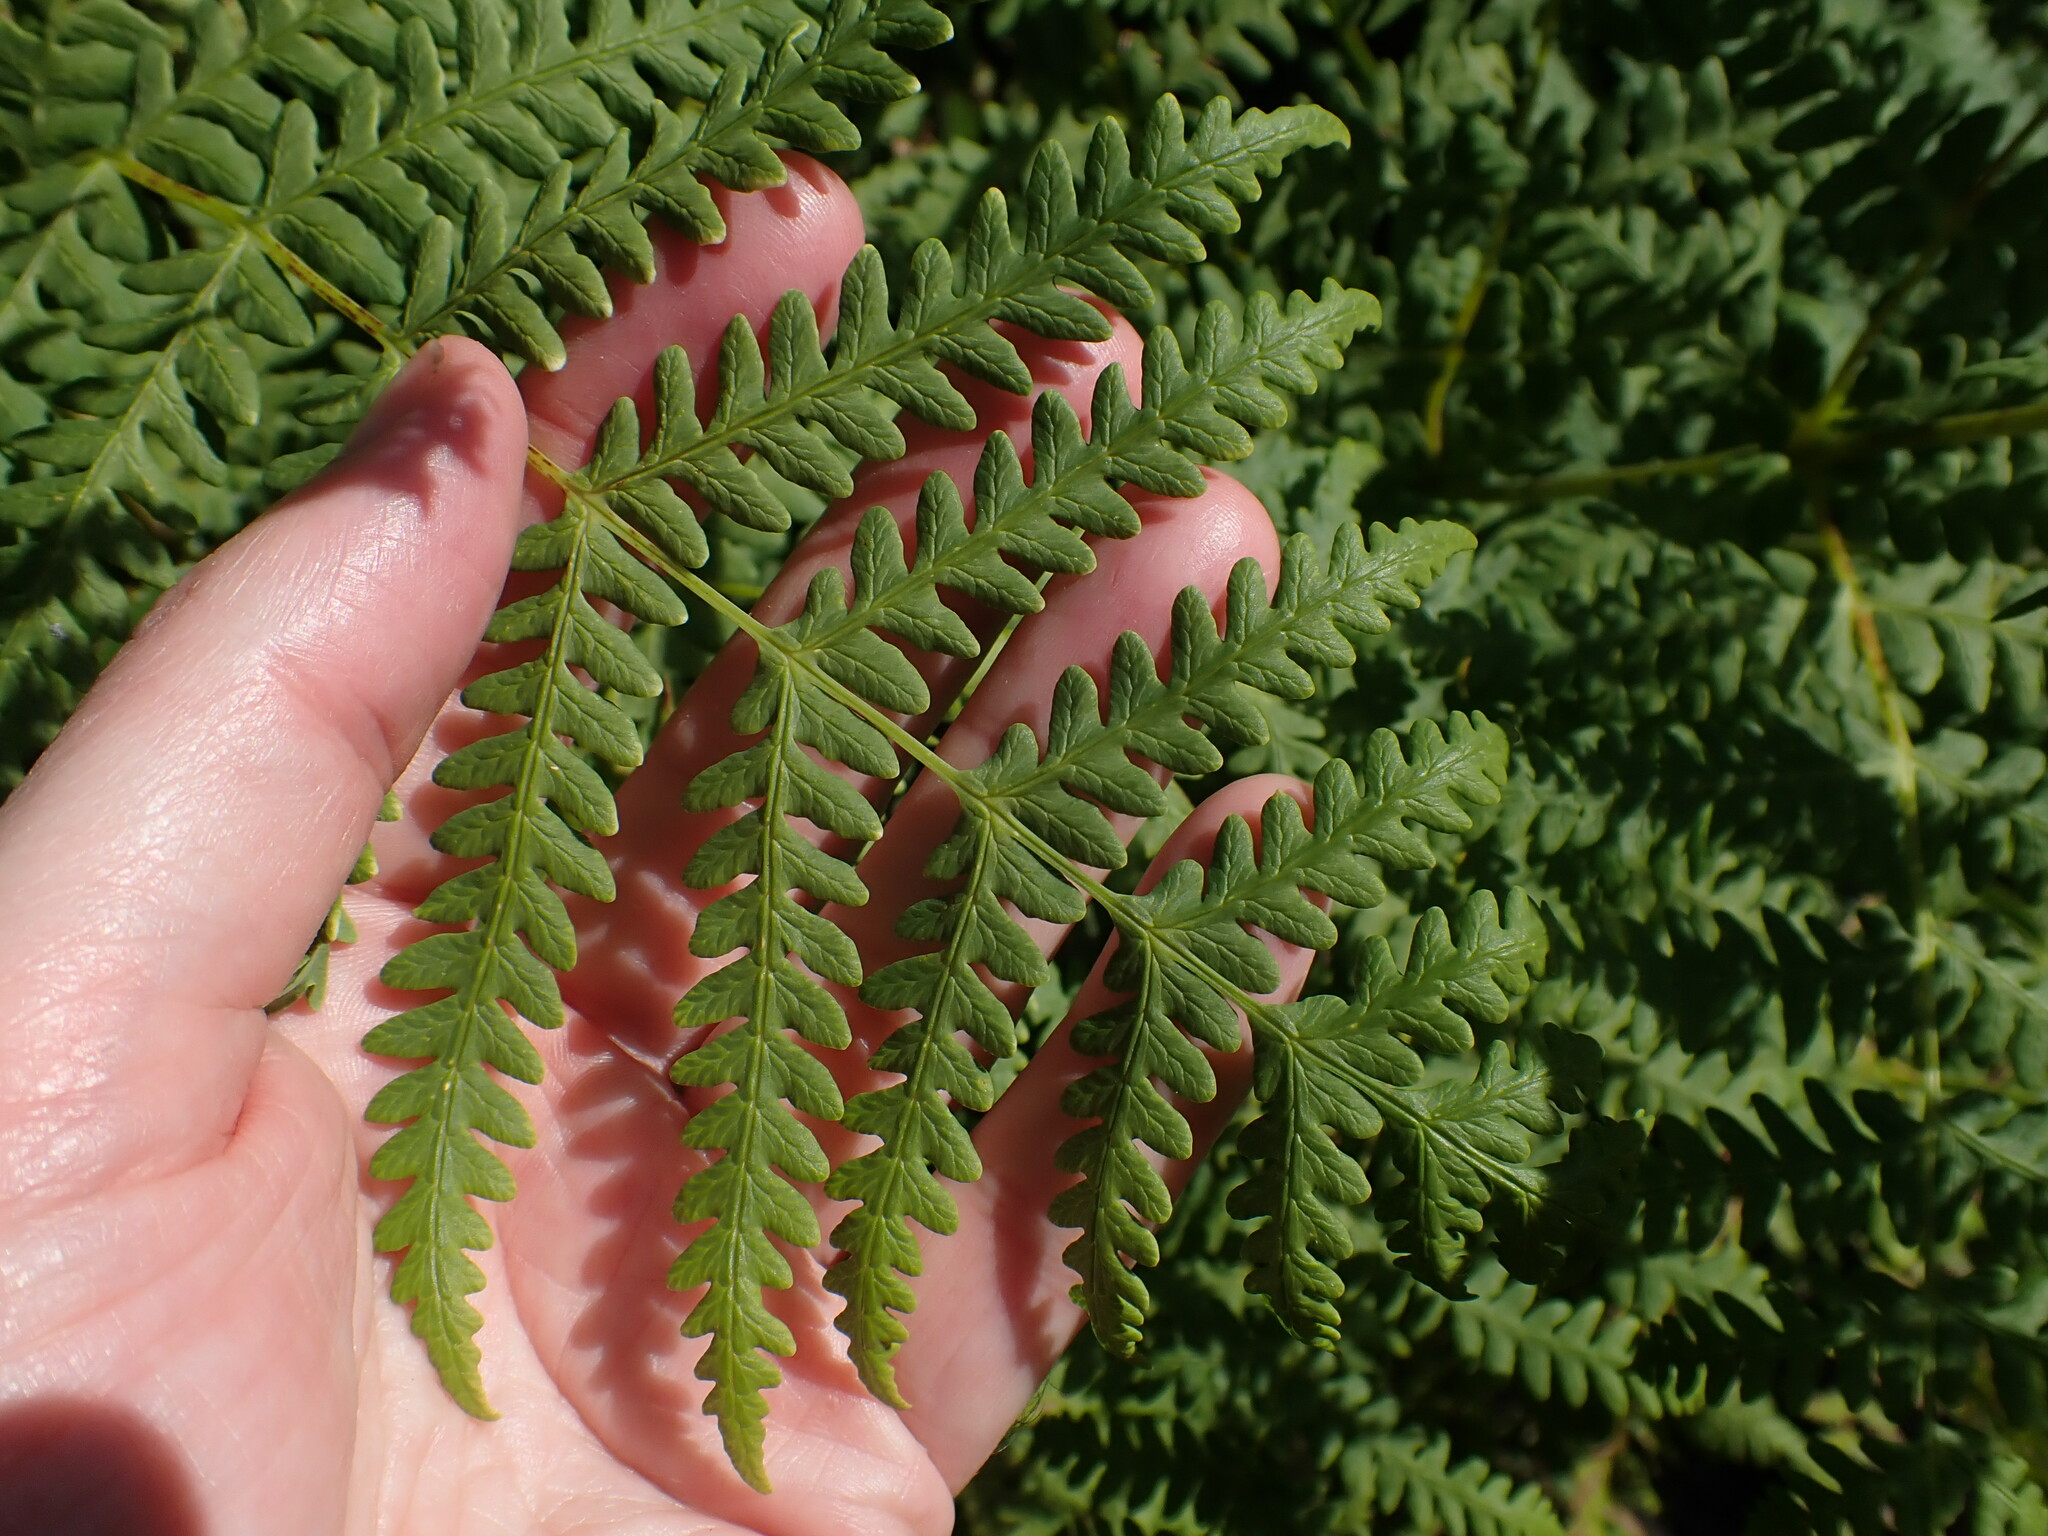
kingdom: Plantae
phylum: Tracheophyta
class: Polypodiopsida
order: Polypodiales
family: Dennstaedtiaceae
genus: Histiopteris
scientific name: Histiopteris incisa
